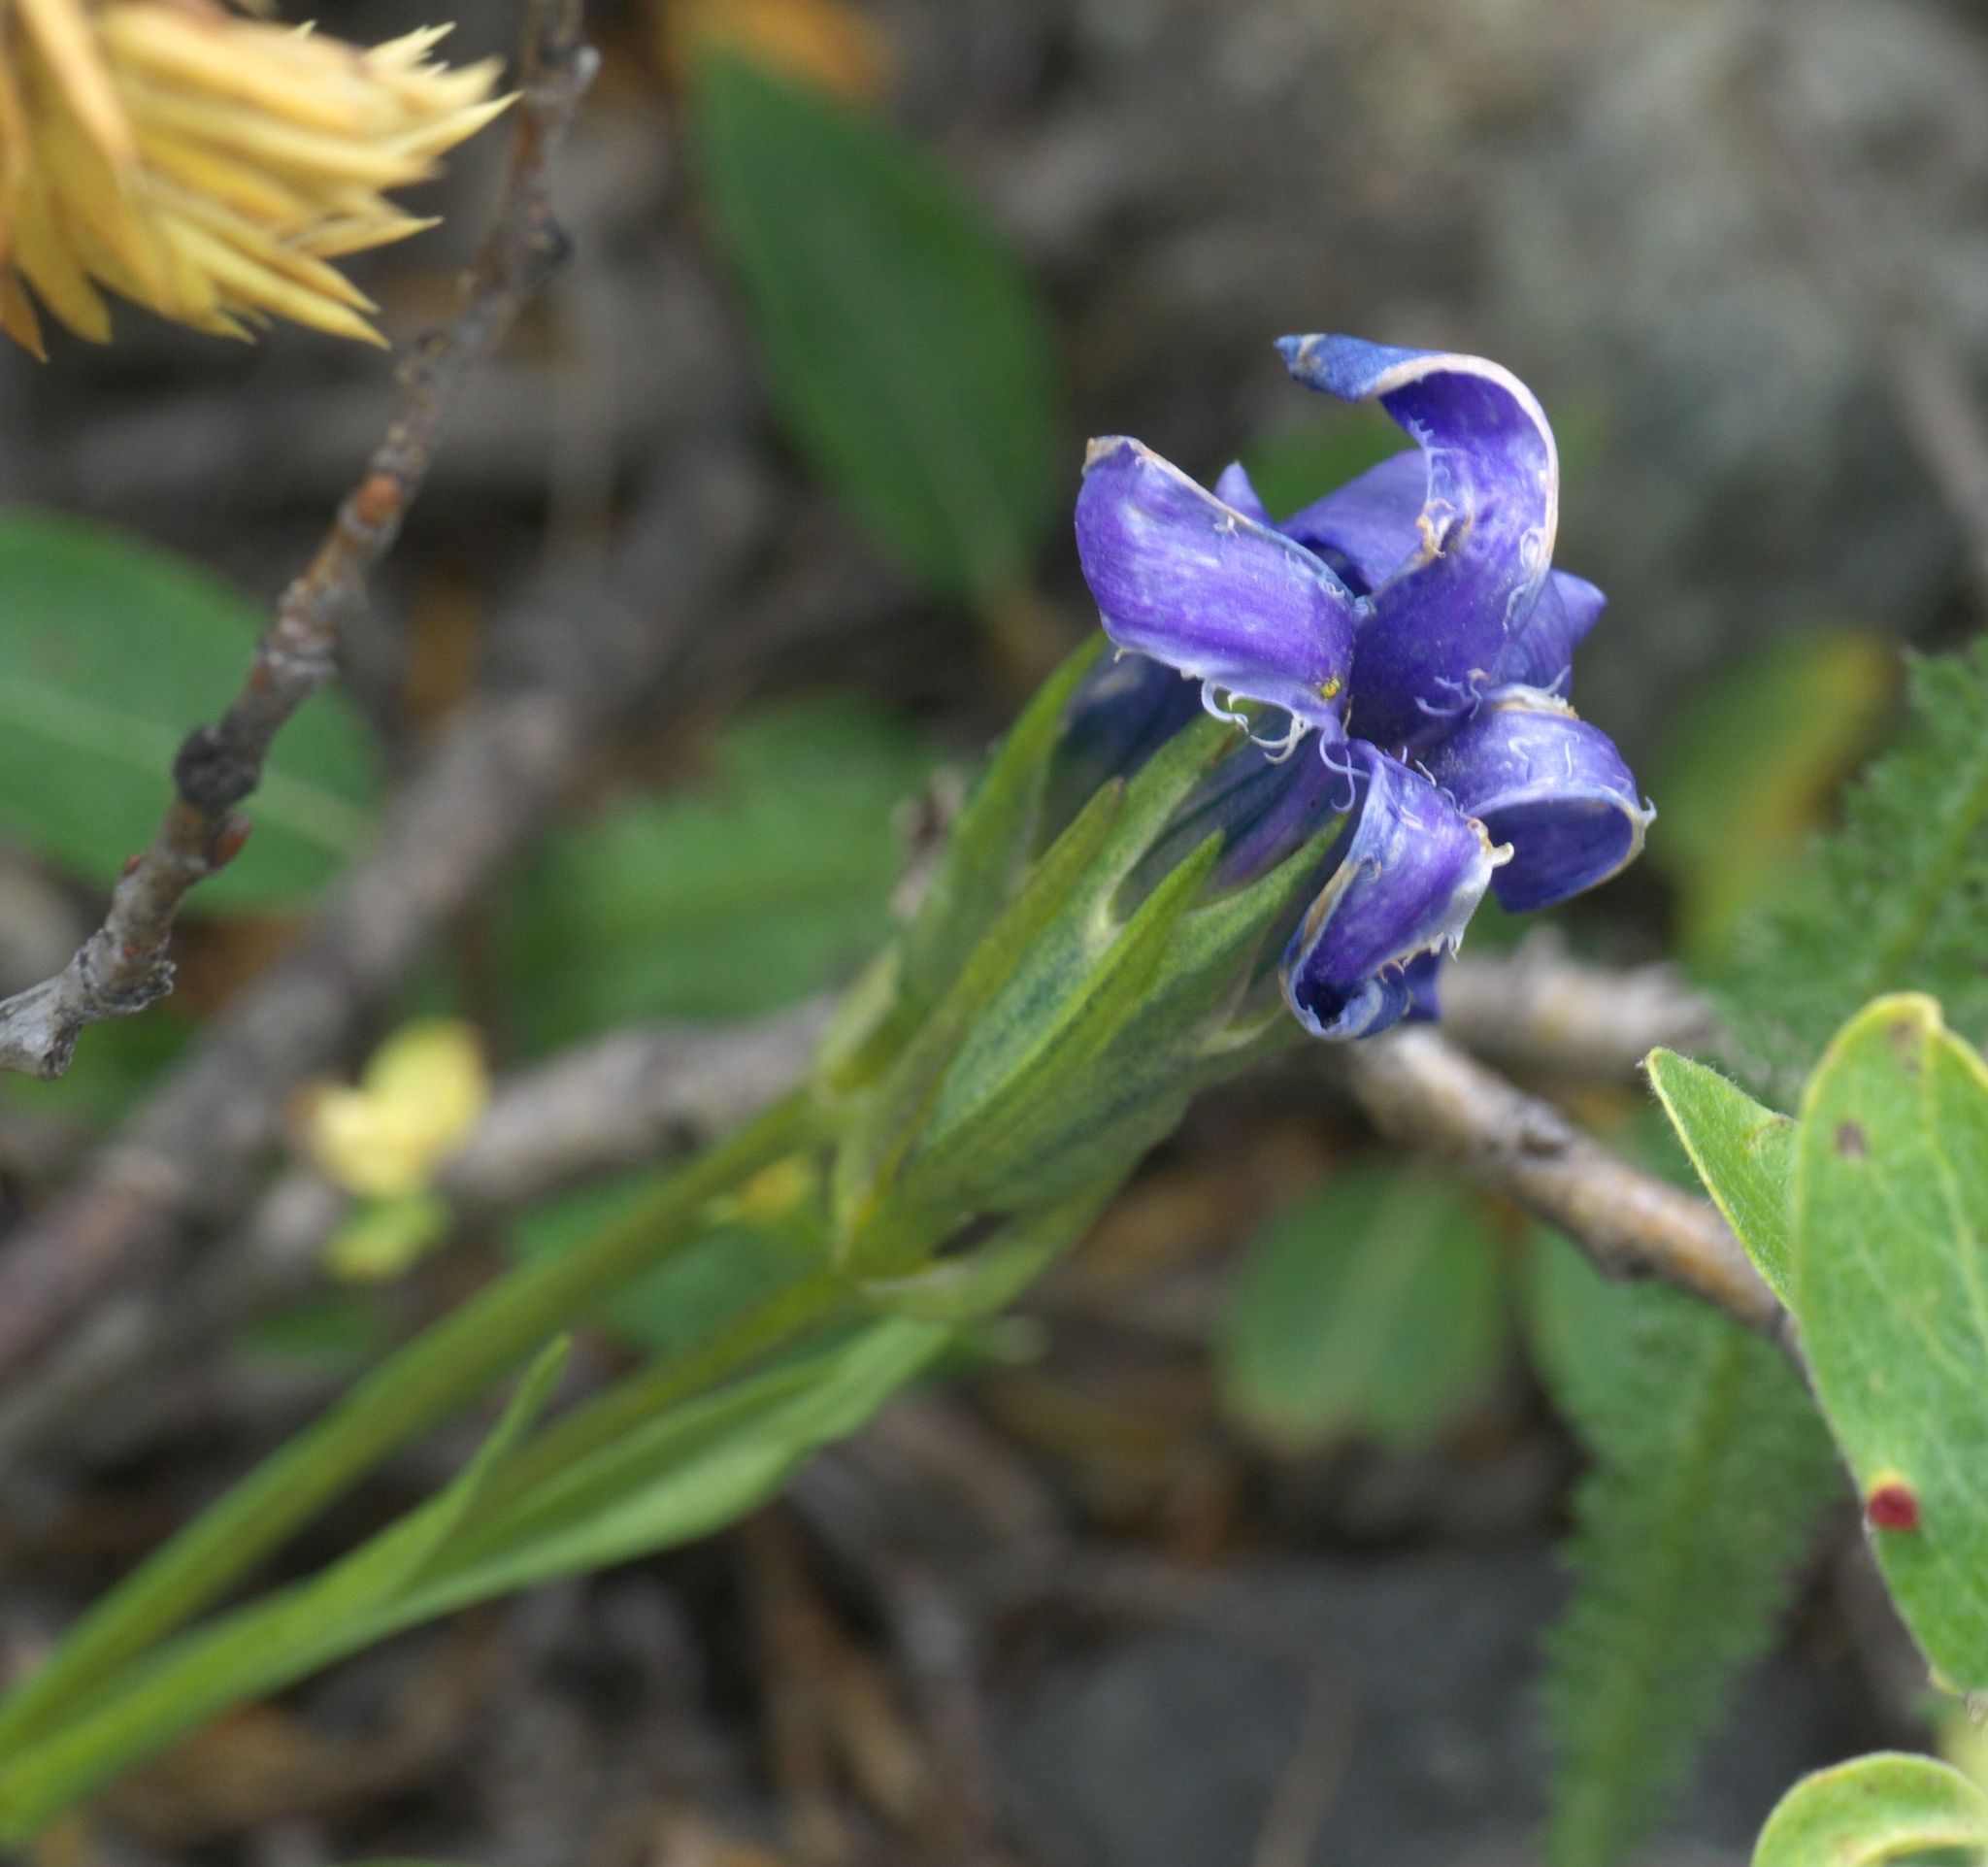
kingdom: Plantae
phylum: Tracheophyta
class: Magnoliopsida
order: Gentianales
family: Gentianaceae
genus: Gentianopsis
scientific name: Gentianopsis barbellata
